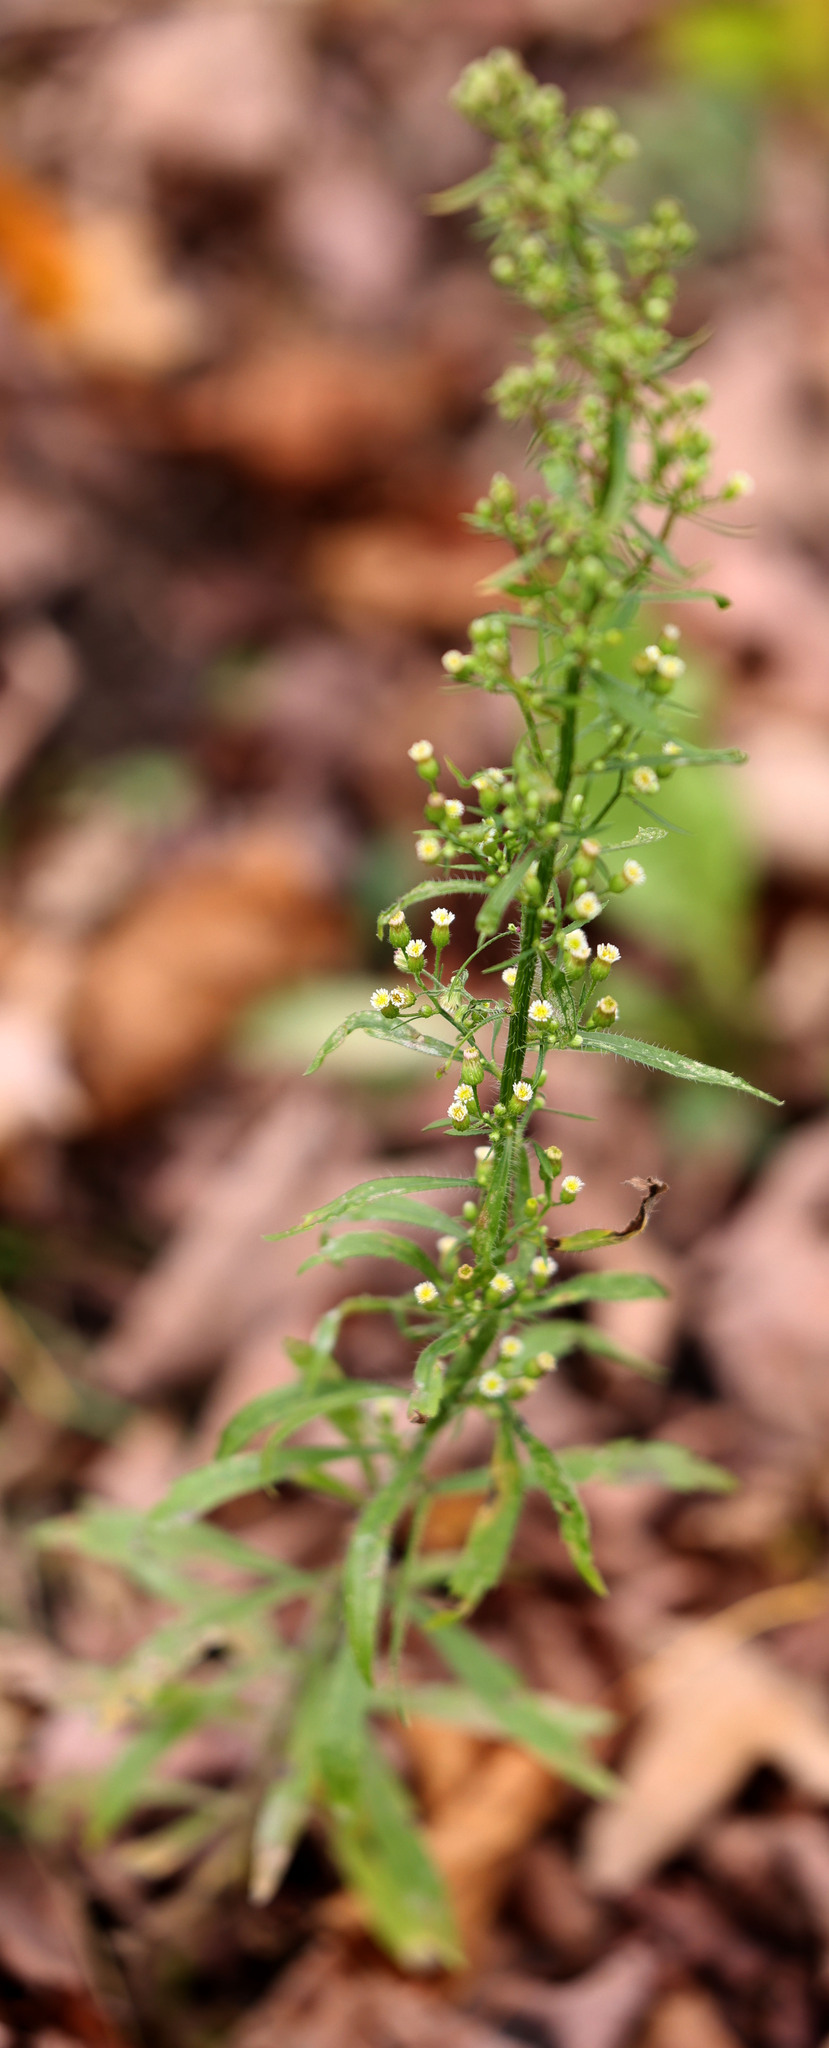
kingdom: Plantae
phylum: Tracheophyta
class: Magnoliopsida
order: Asterales
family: Asteraceae
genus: Erigeron
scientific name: Erigeron canadensis
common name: Canadian fleabane
